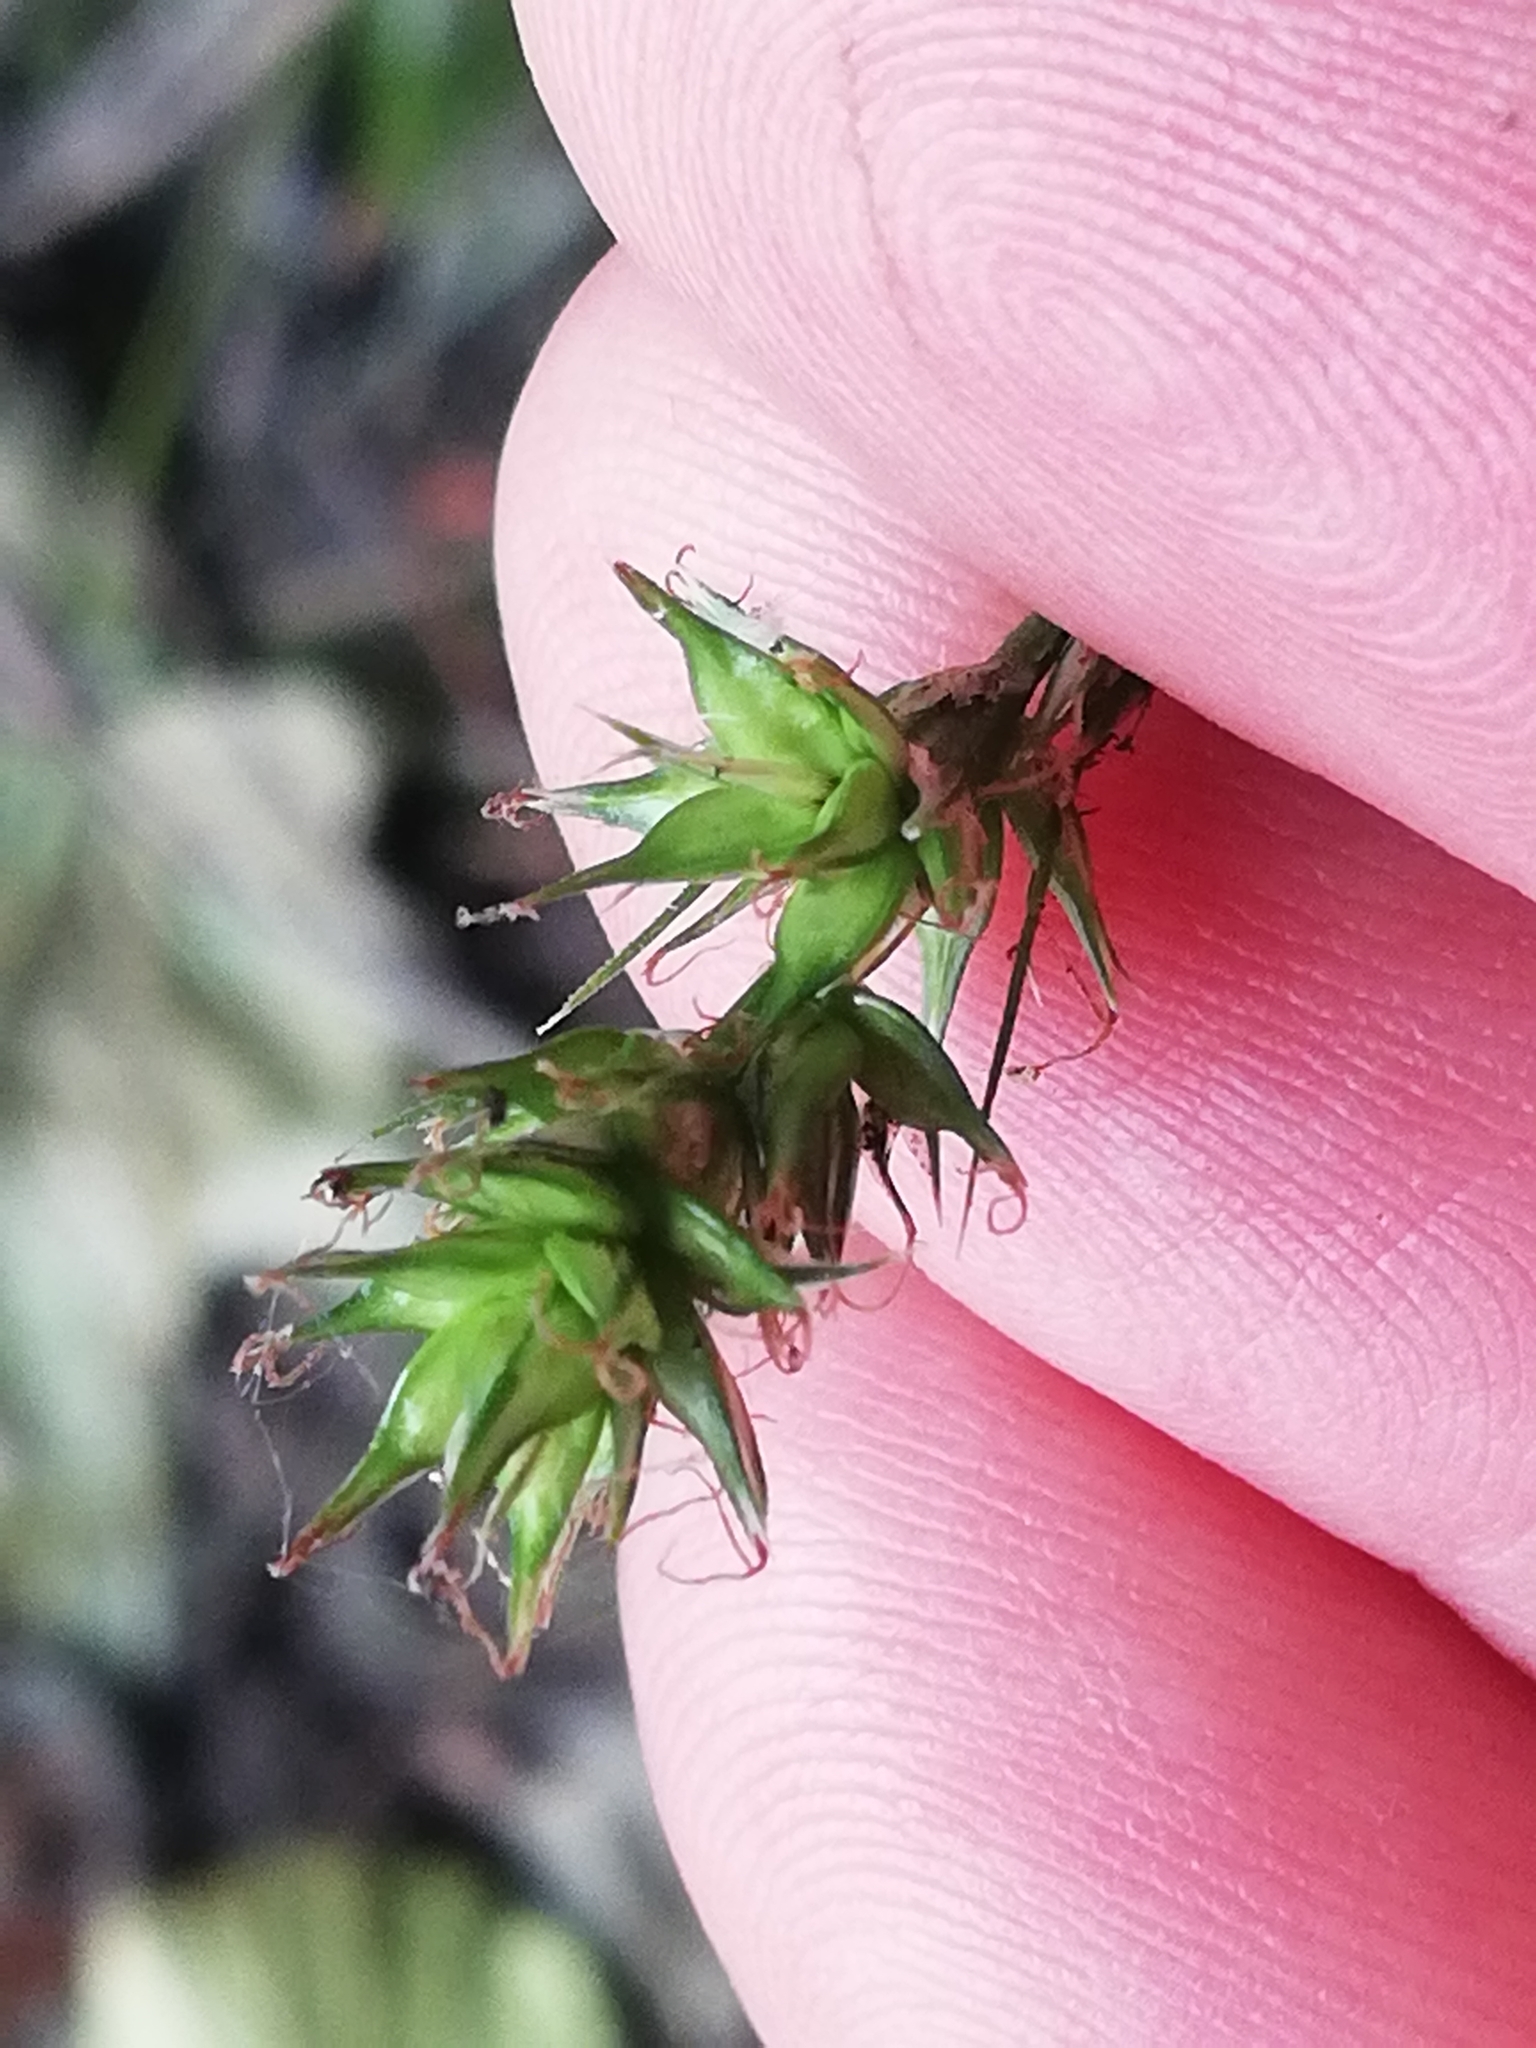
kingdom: Plantae
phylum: Tracheophyta
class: Liliopsida
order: Poales
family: Cyperaceae
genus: Carex
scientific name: Carex spicata
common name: Spiked sedge
